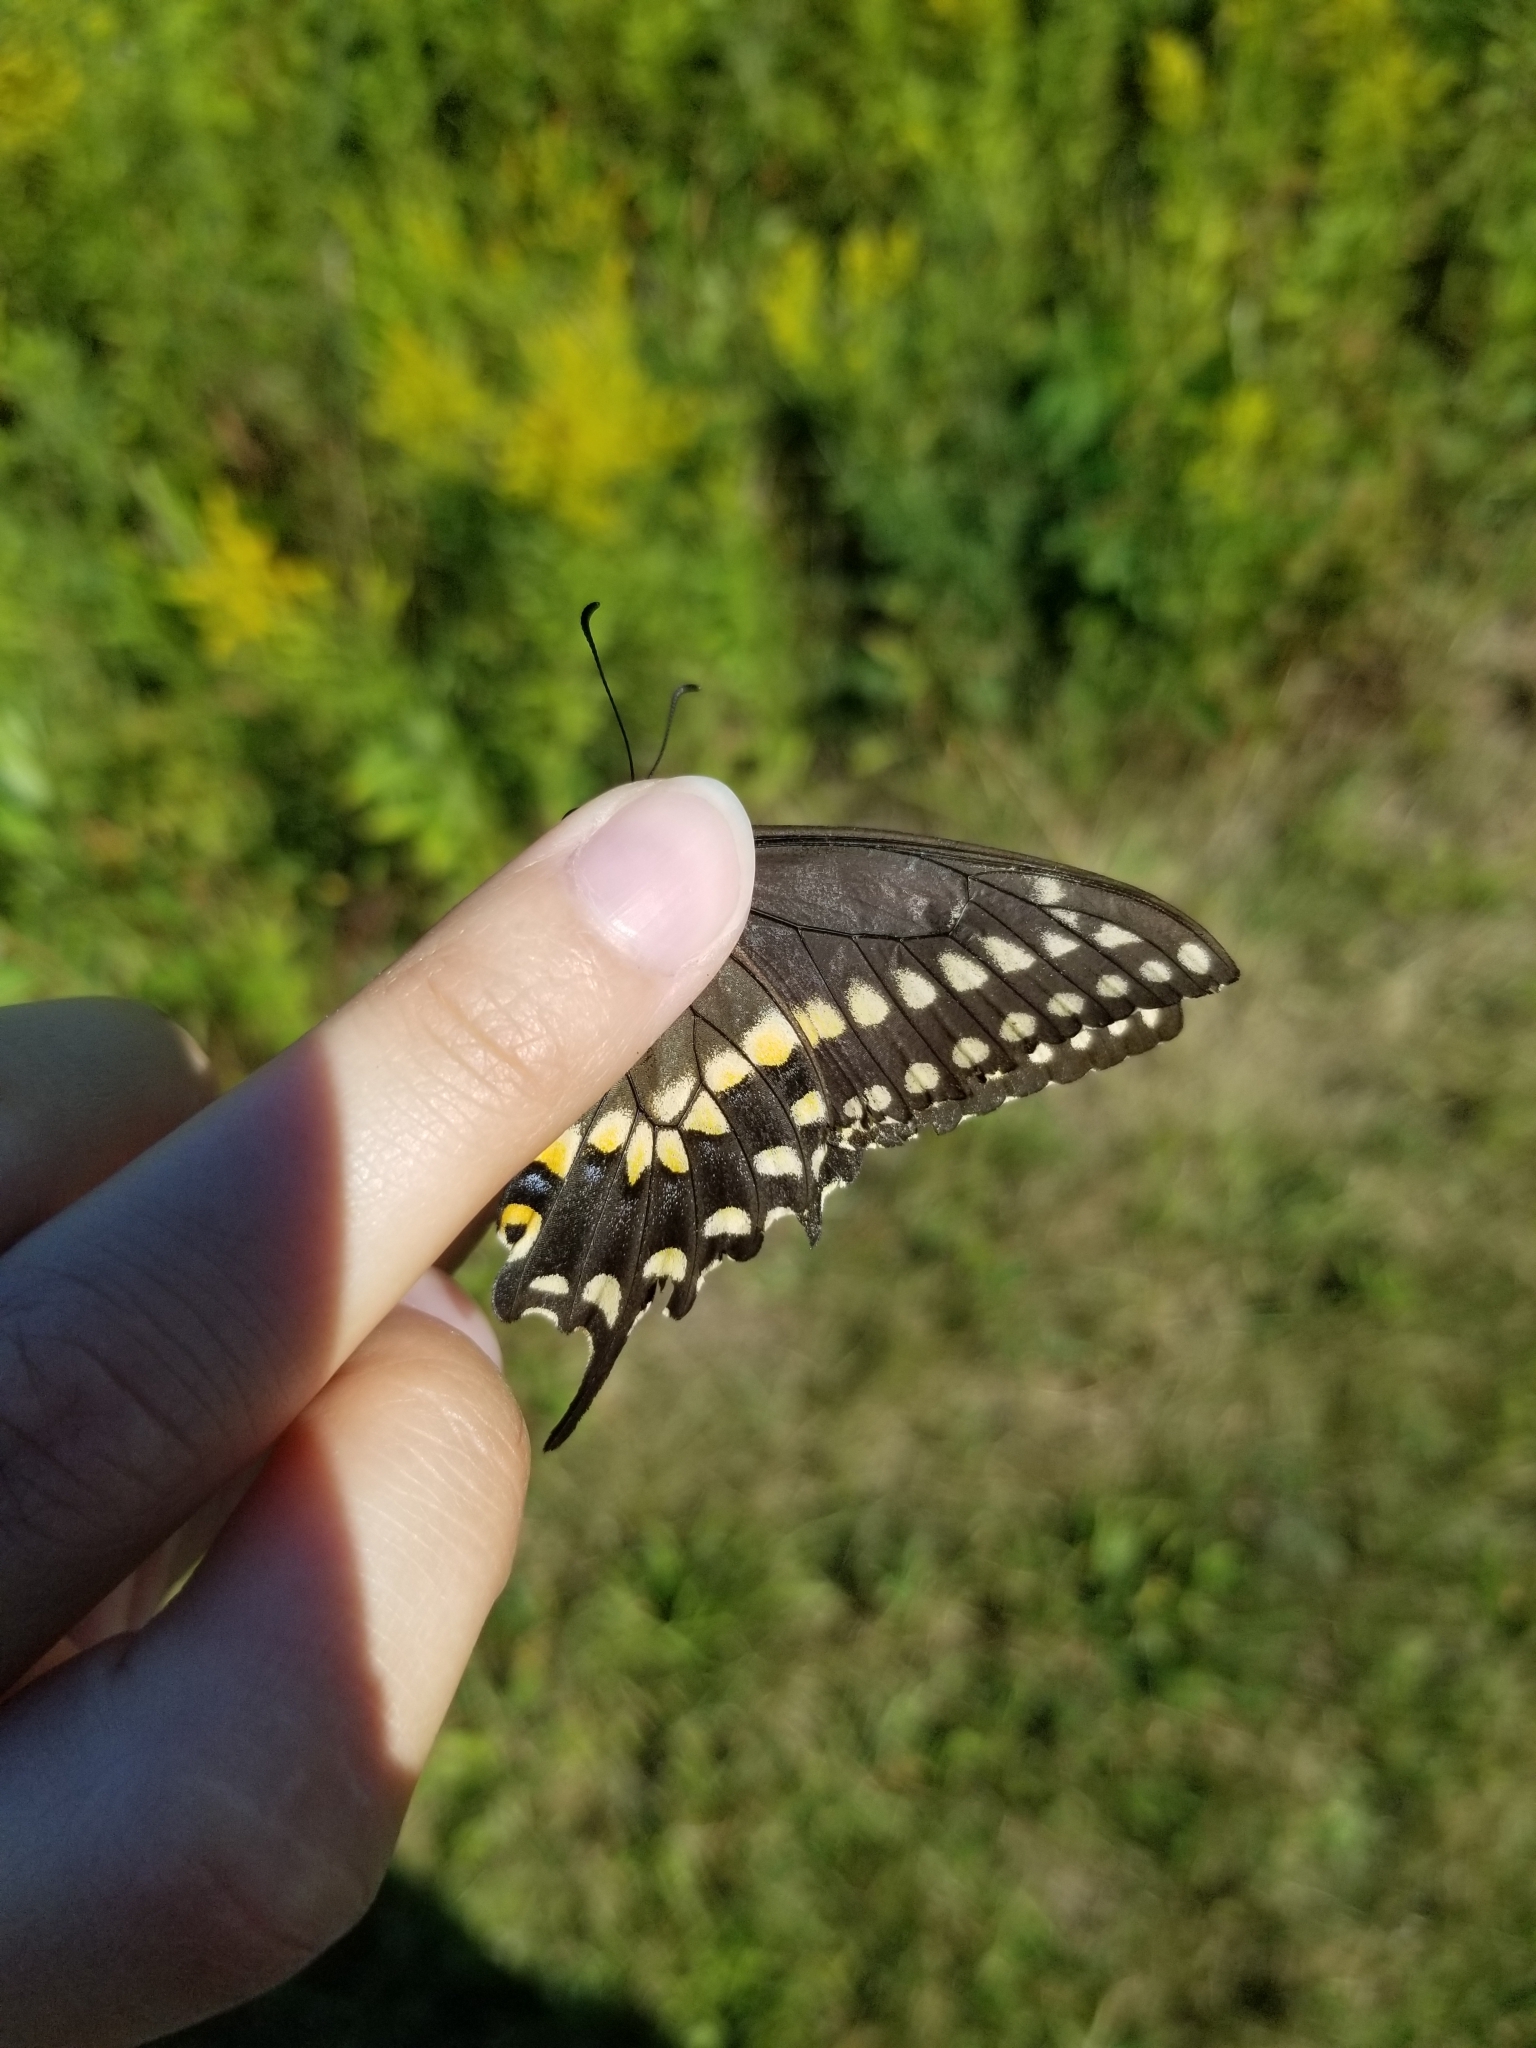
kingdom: Animalia
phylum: Arthropoda
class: Insecta
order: Lepidoptera
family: Papilionidae
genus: Papilio
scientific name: Papilio polyxenes
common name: Black swallowtail
